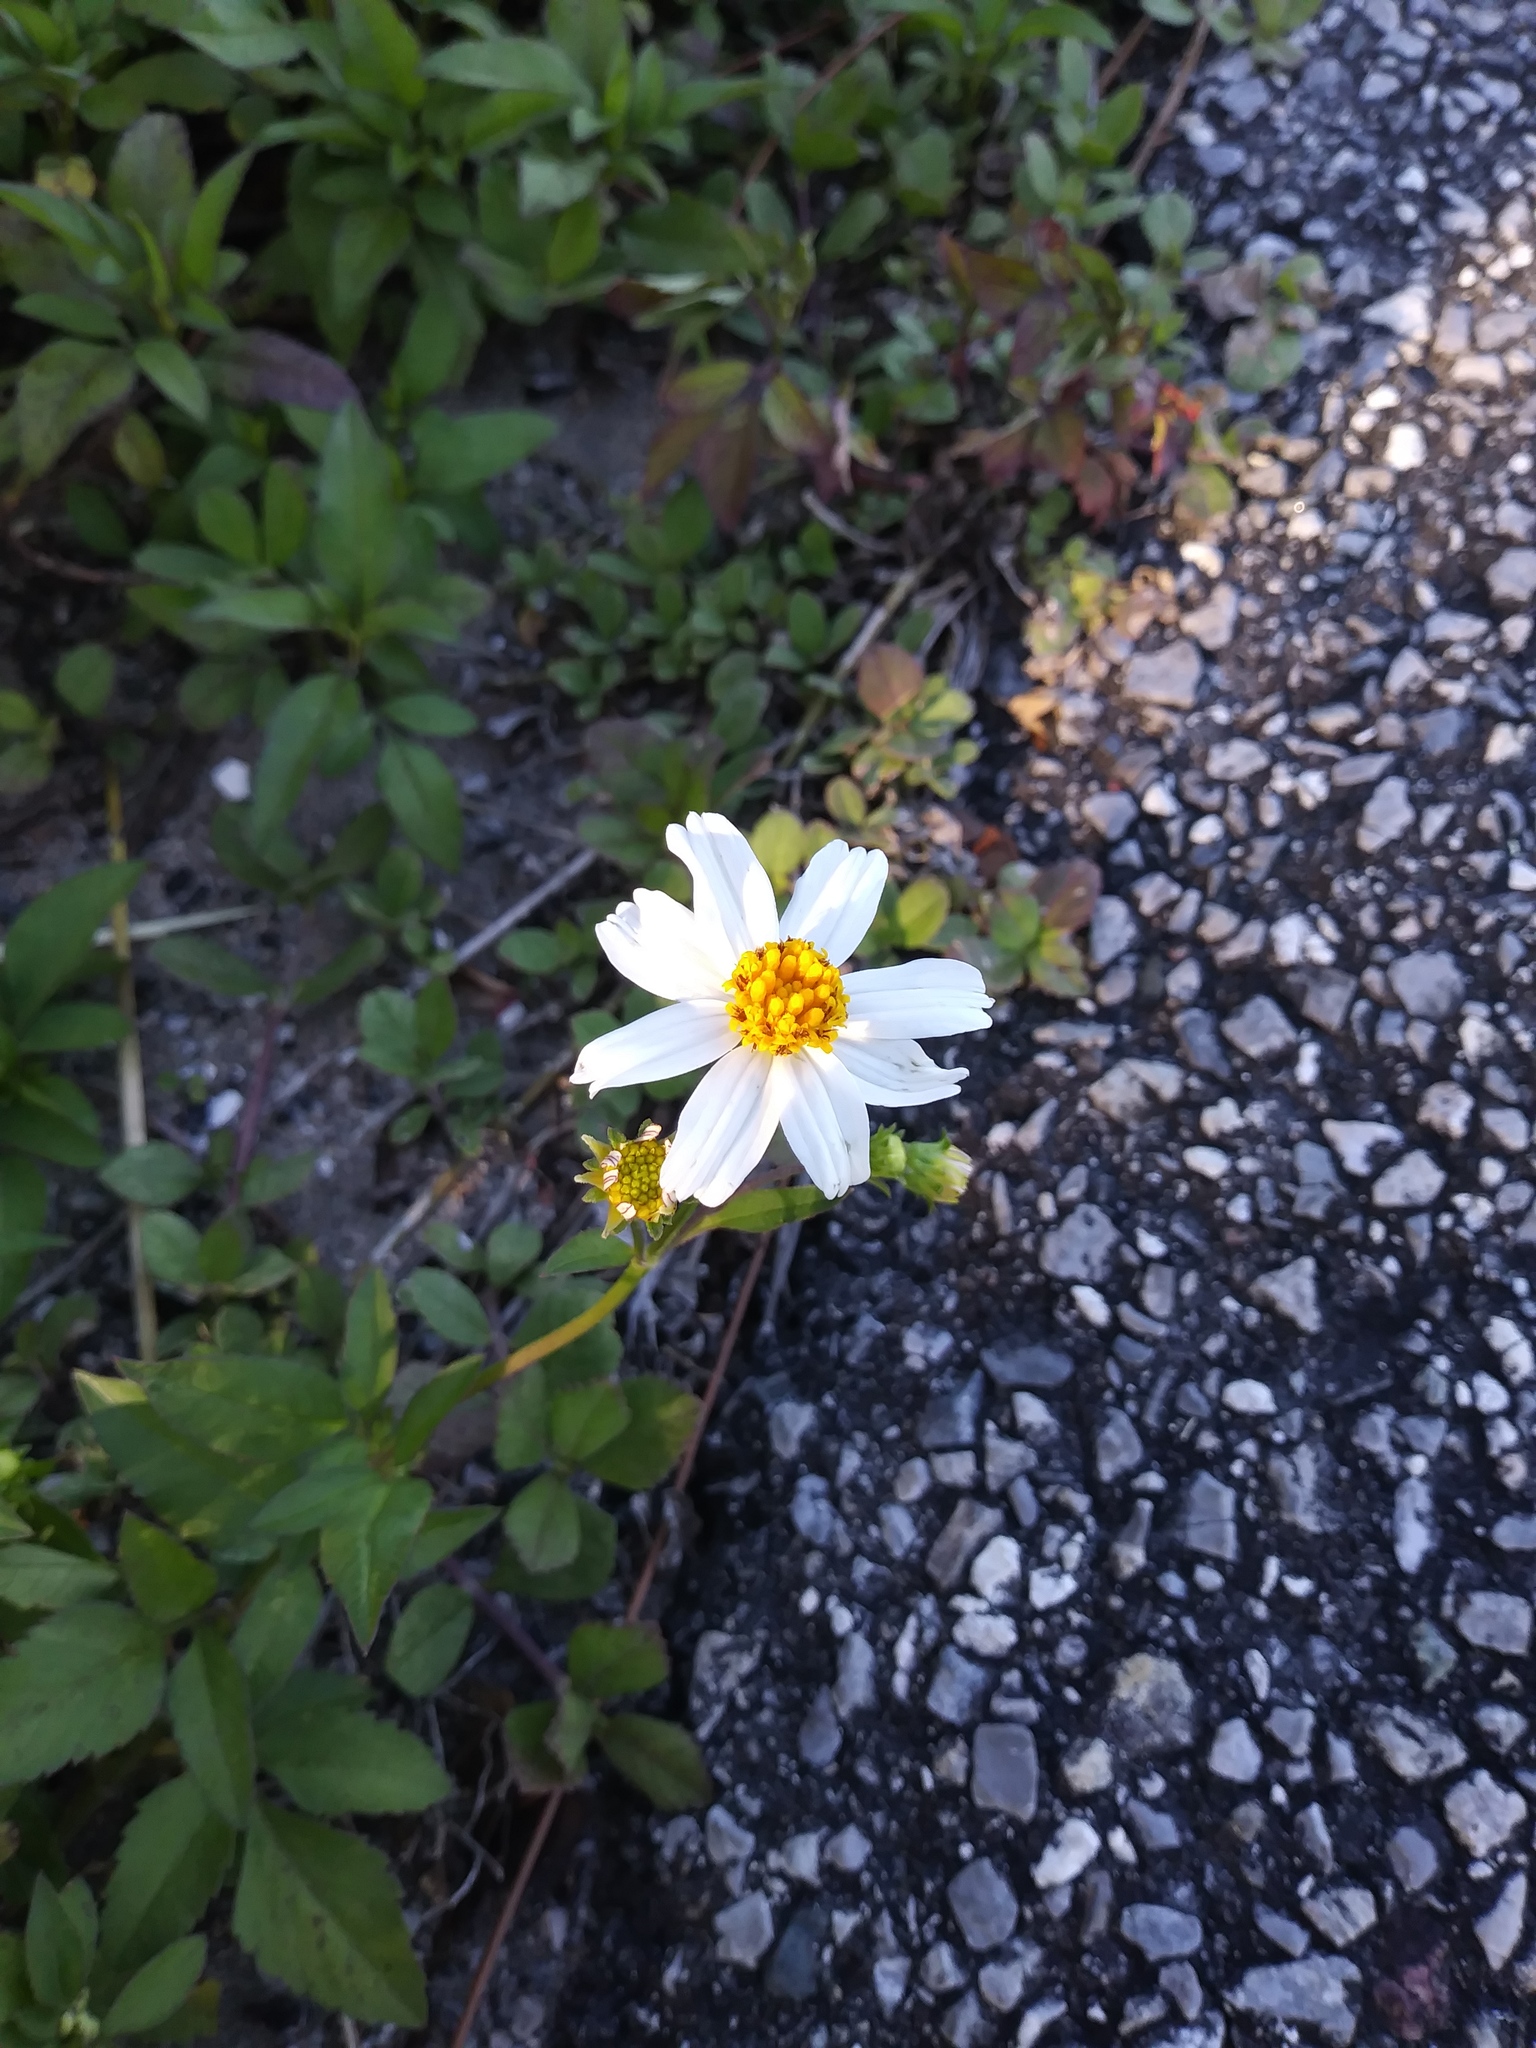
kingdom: Plantae
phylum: Tracheophyta
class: Magnoliopsida
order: Asterales
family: Asteraceae
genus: Bidens
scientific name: Bidens alba
